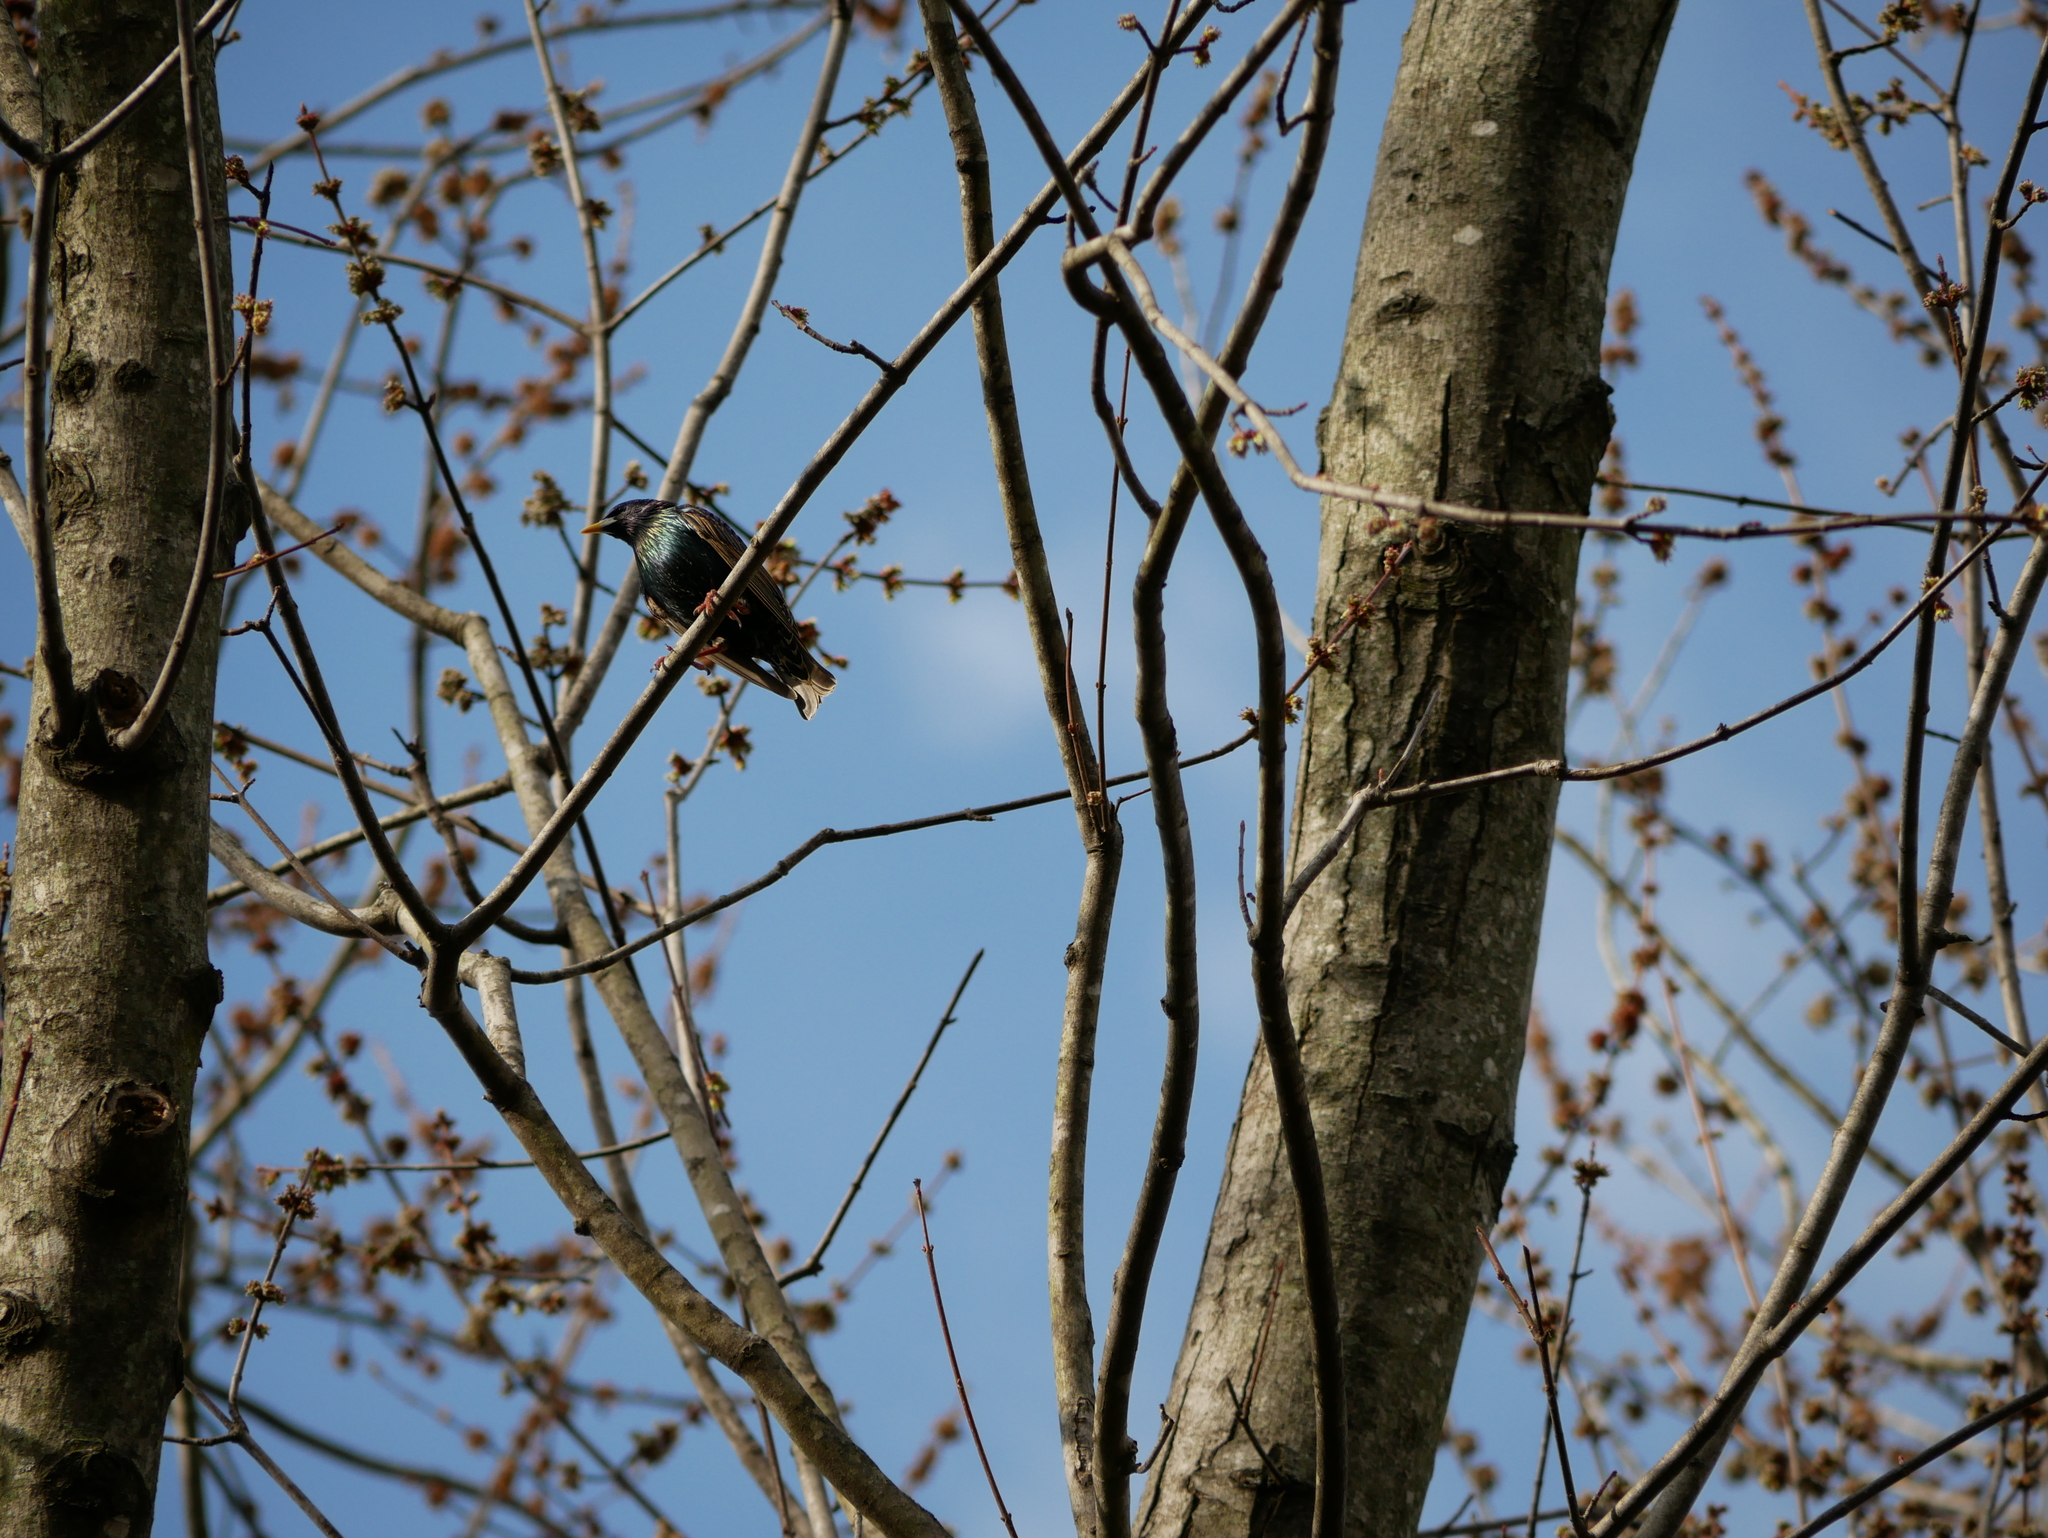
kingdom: Animalia
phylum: Chordata
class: Aves
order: Passeriformes
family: Sturnidae
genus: Sturnus
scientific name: Sturnus vulgaris
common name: Common starling
